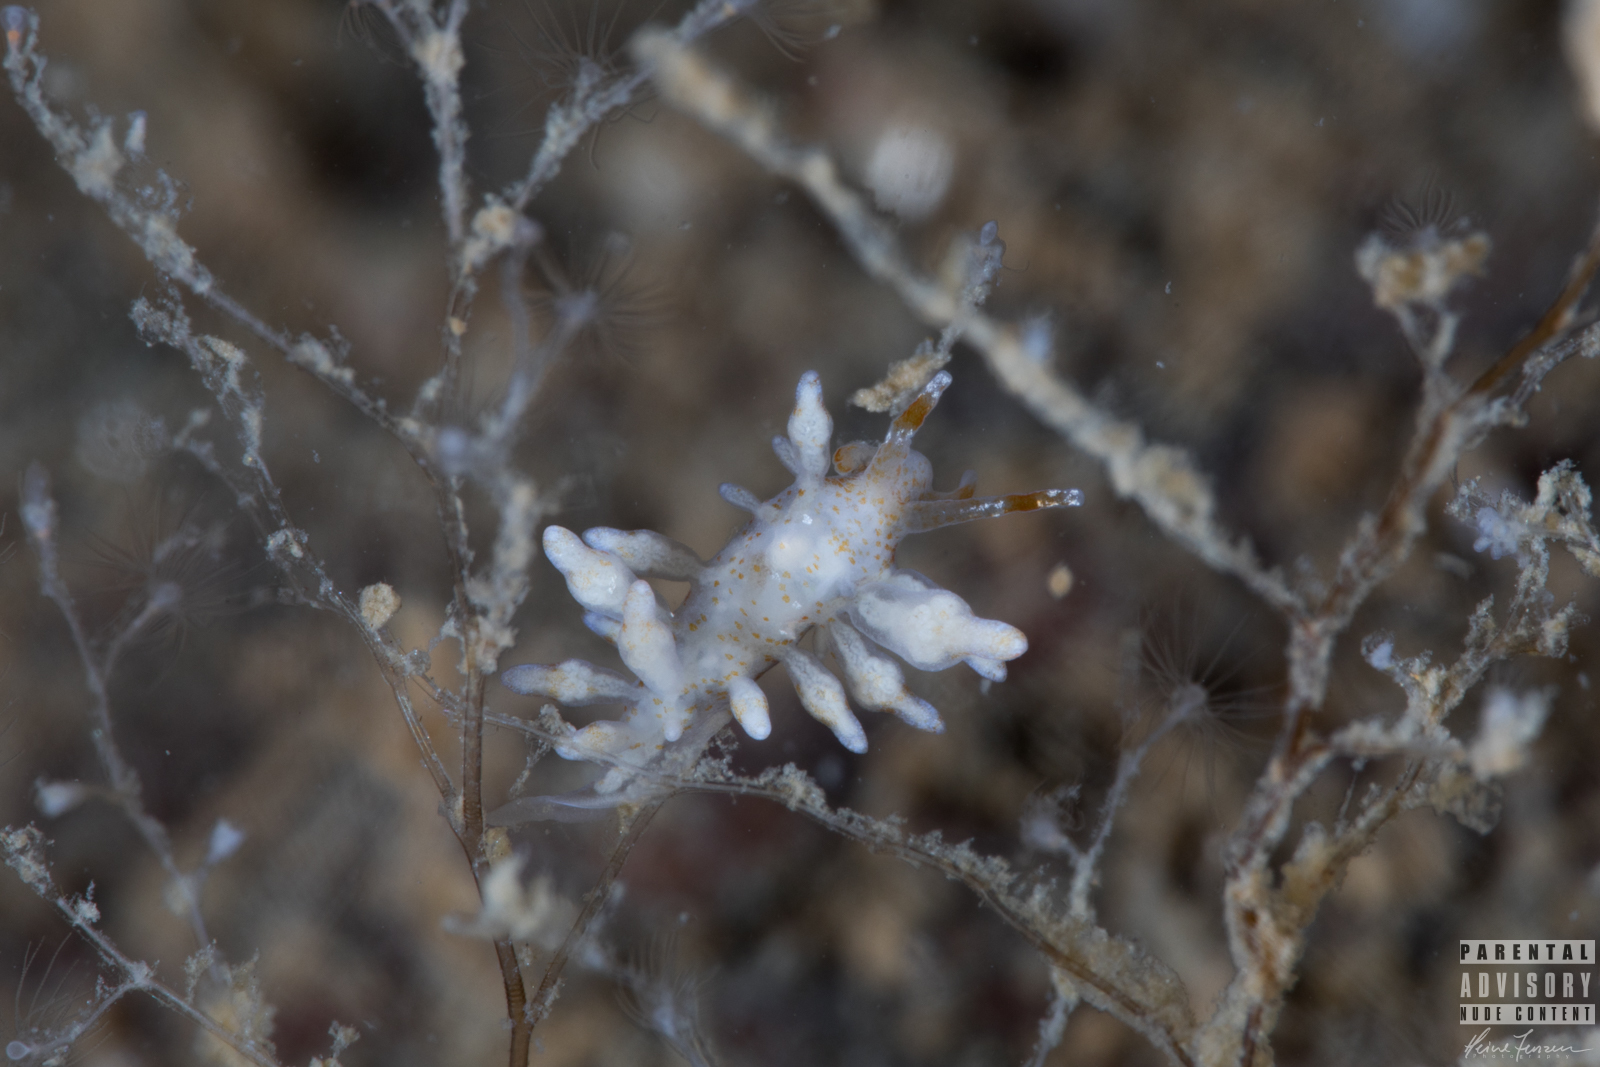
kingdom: Animalia
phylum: Mollusca
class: Gastropoda
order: Nudibranchia
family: Eubranchidae
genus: Eubranchus
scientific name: Eubranchus rupium
